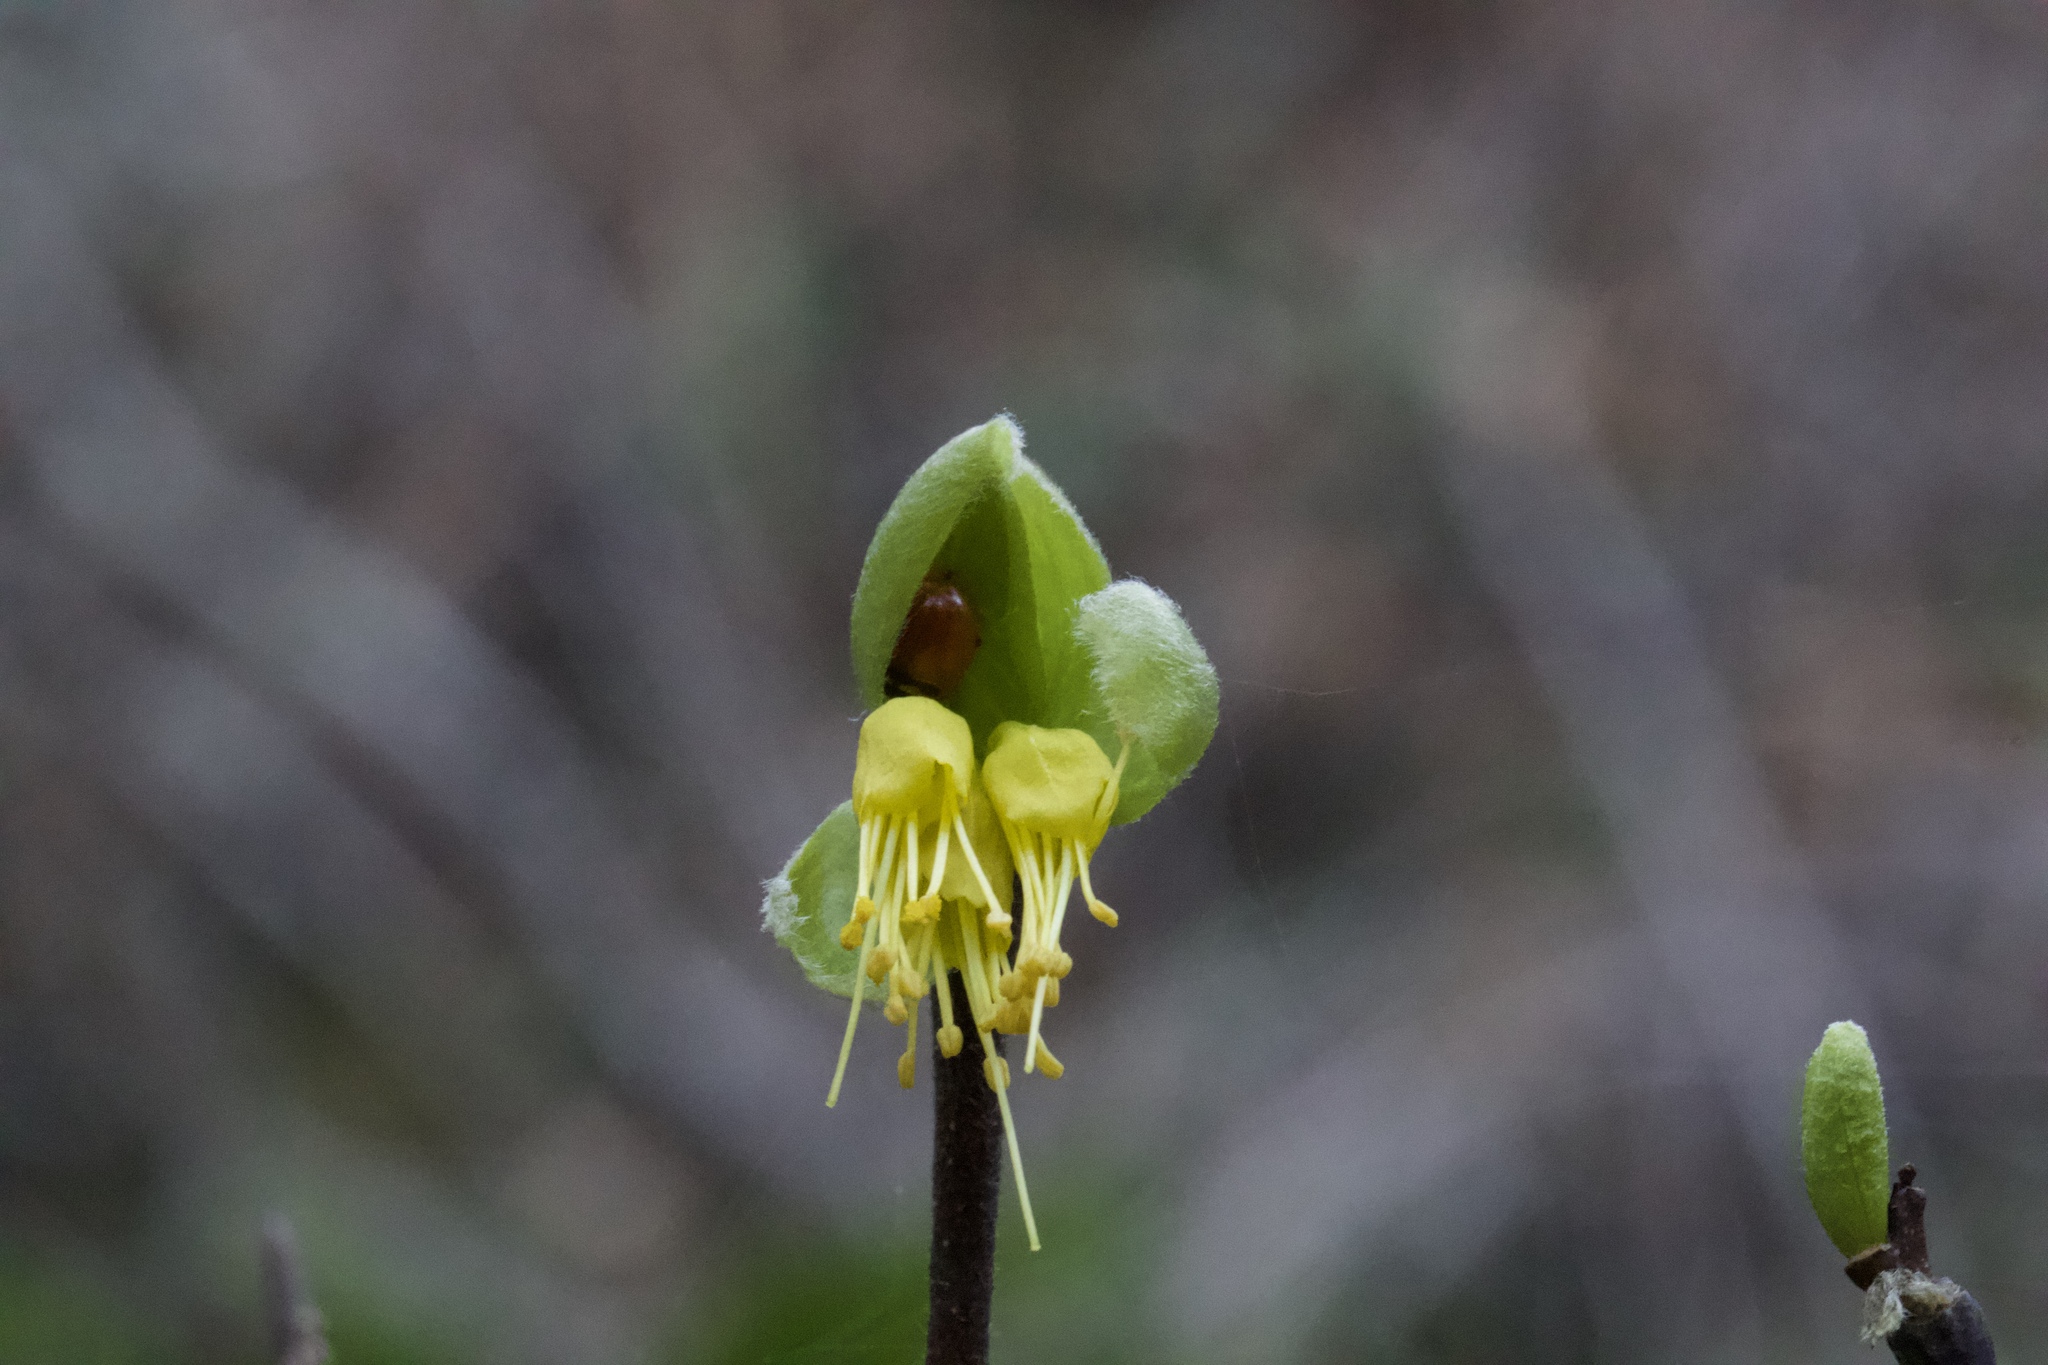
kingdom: Plantae
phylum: Tracheophyta
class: Magnoliopsida
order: Malvales
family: Thymelaeaceae
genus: Dirca
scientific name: Dirca occidentalis
